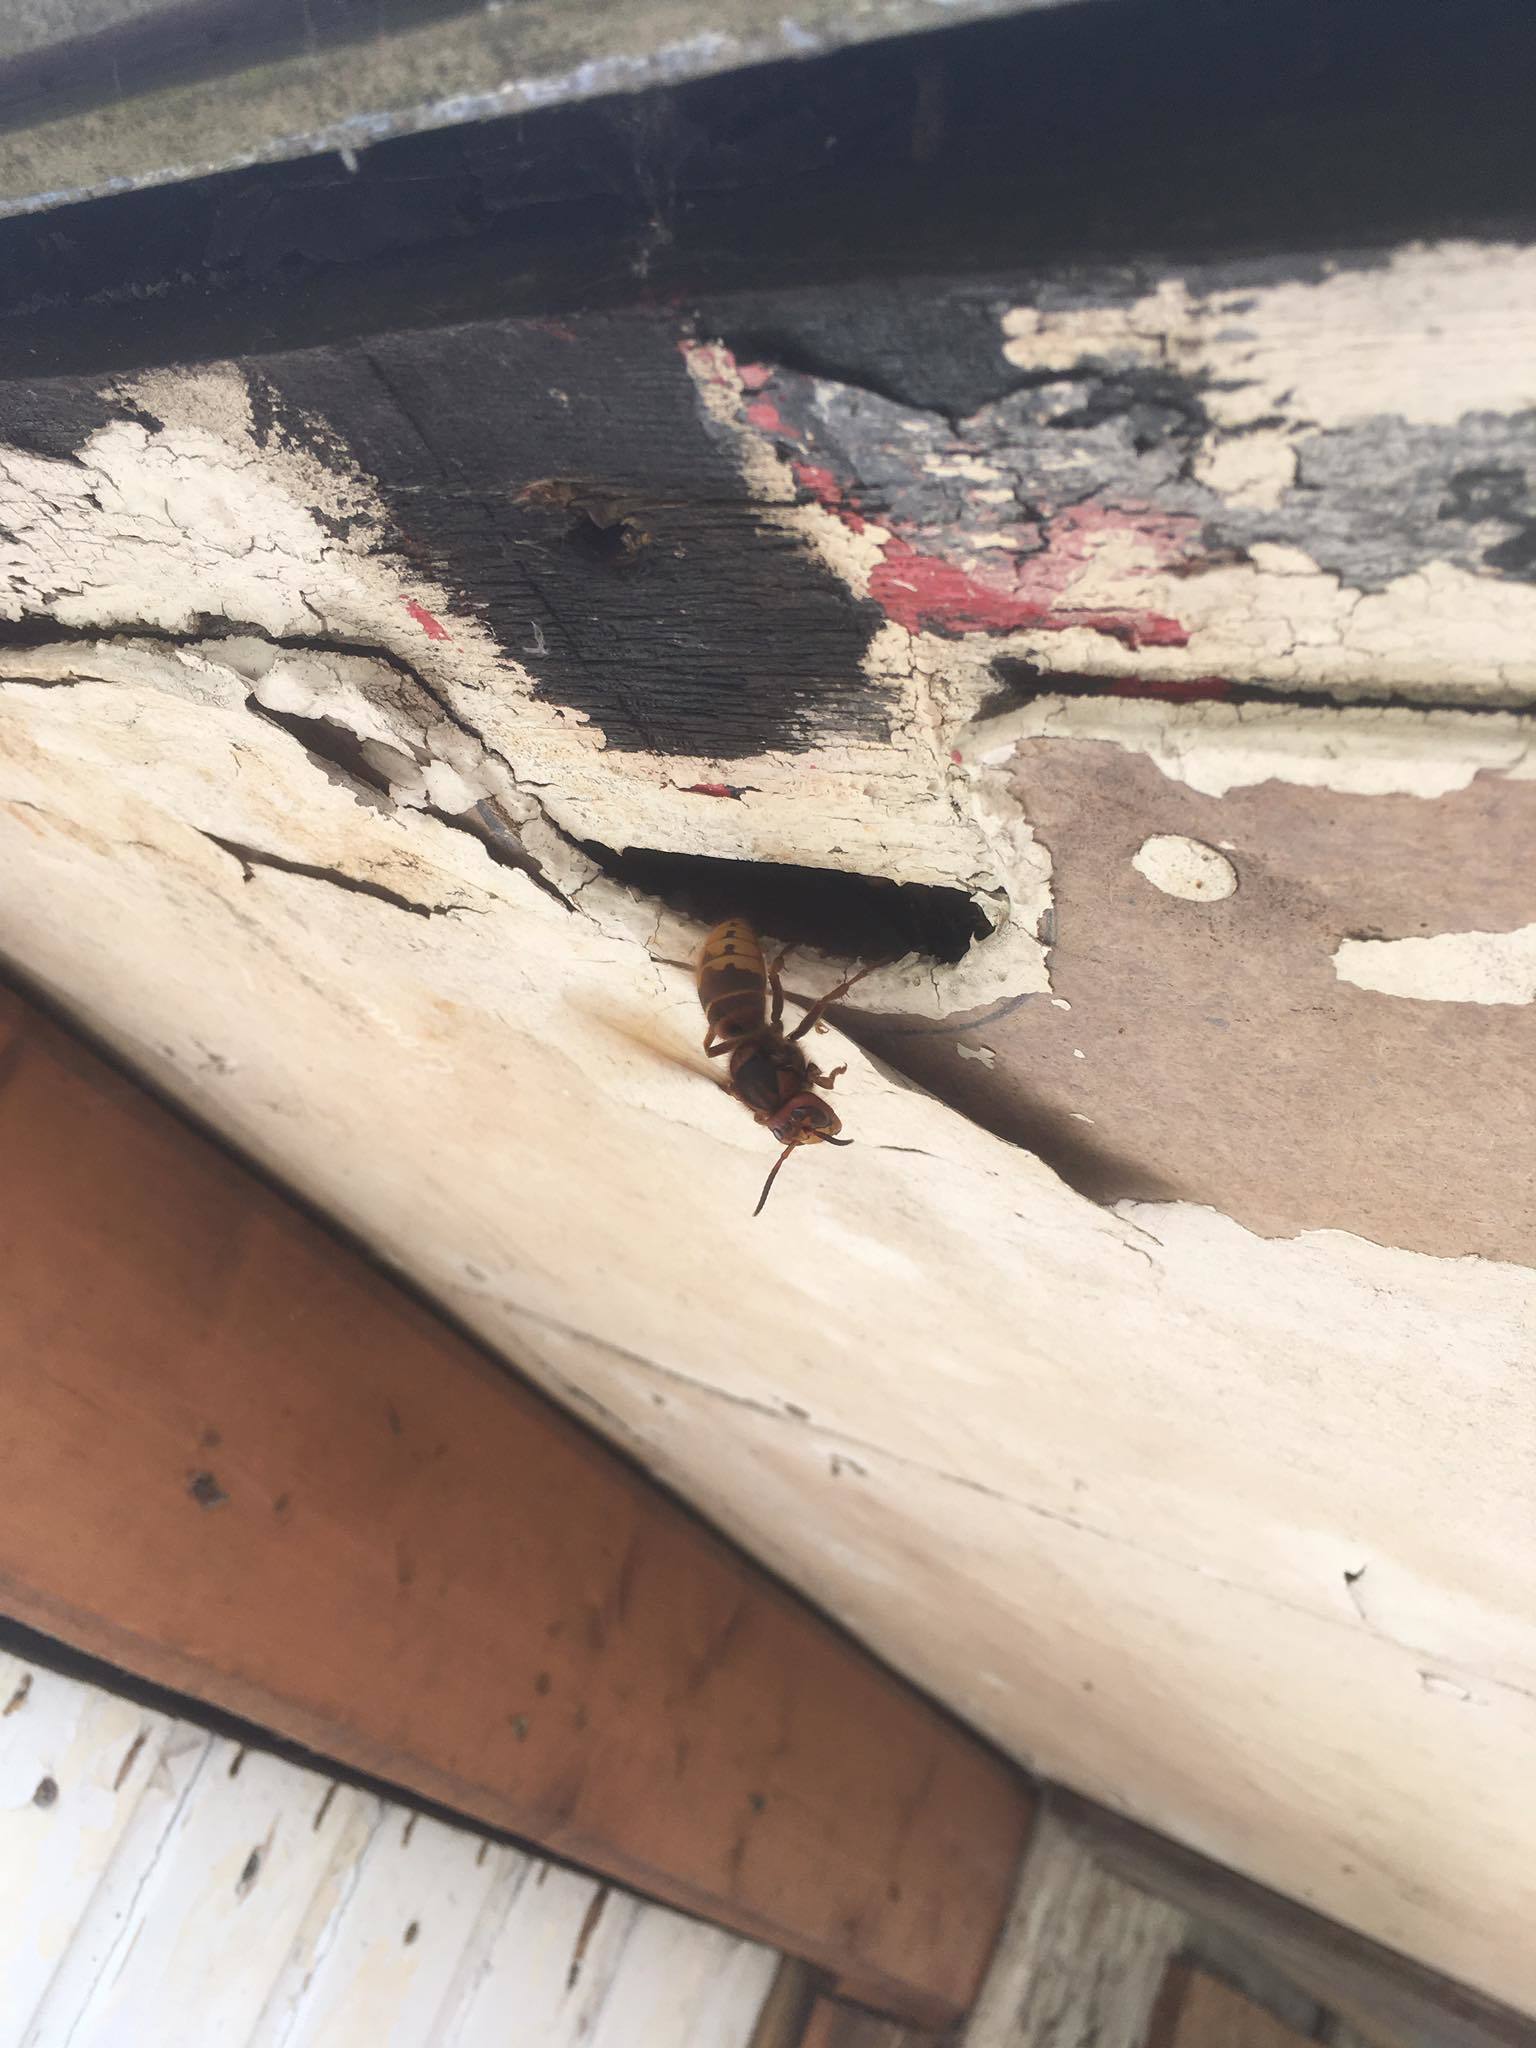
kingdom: Animalia
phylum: Arthropoda
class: Insecta
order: Hymenoptera
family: Vespidae
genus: Vespa
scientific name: Vespa crabro
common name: Hornet
